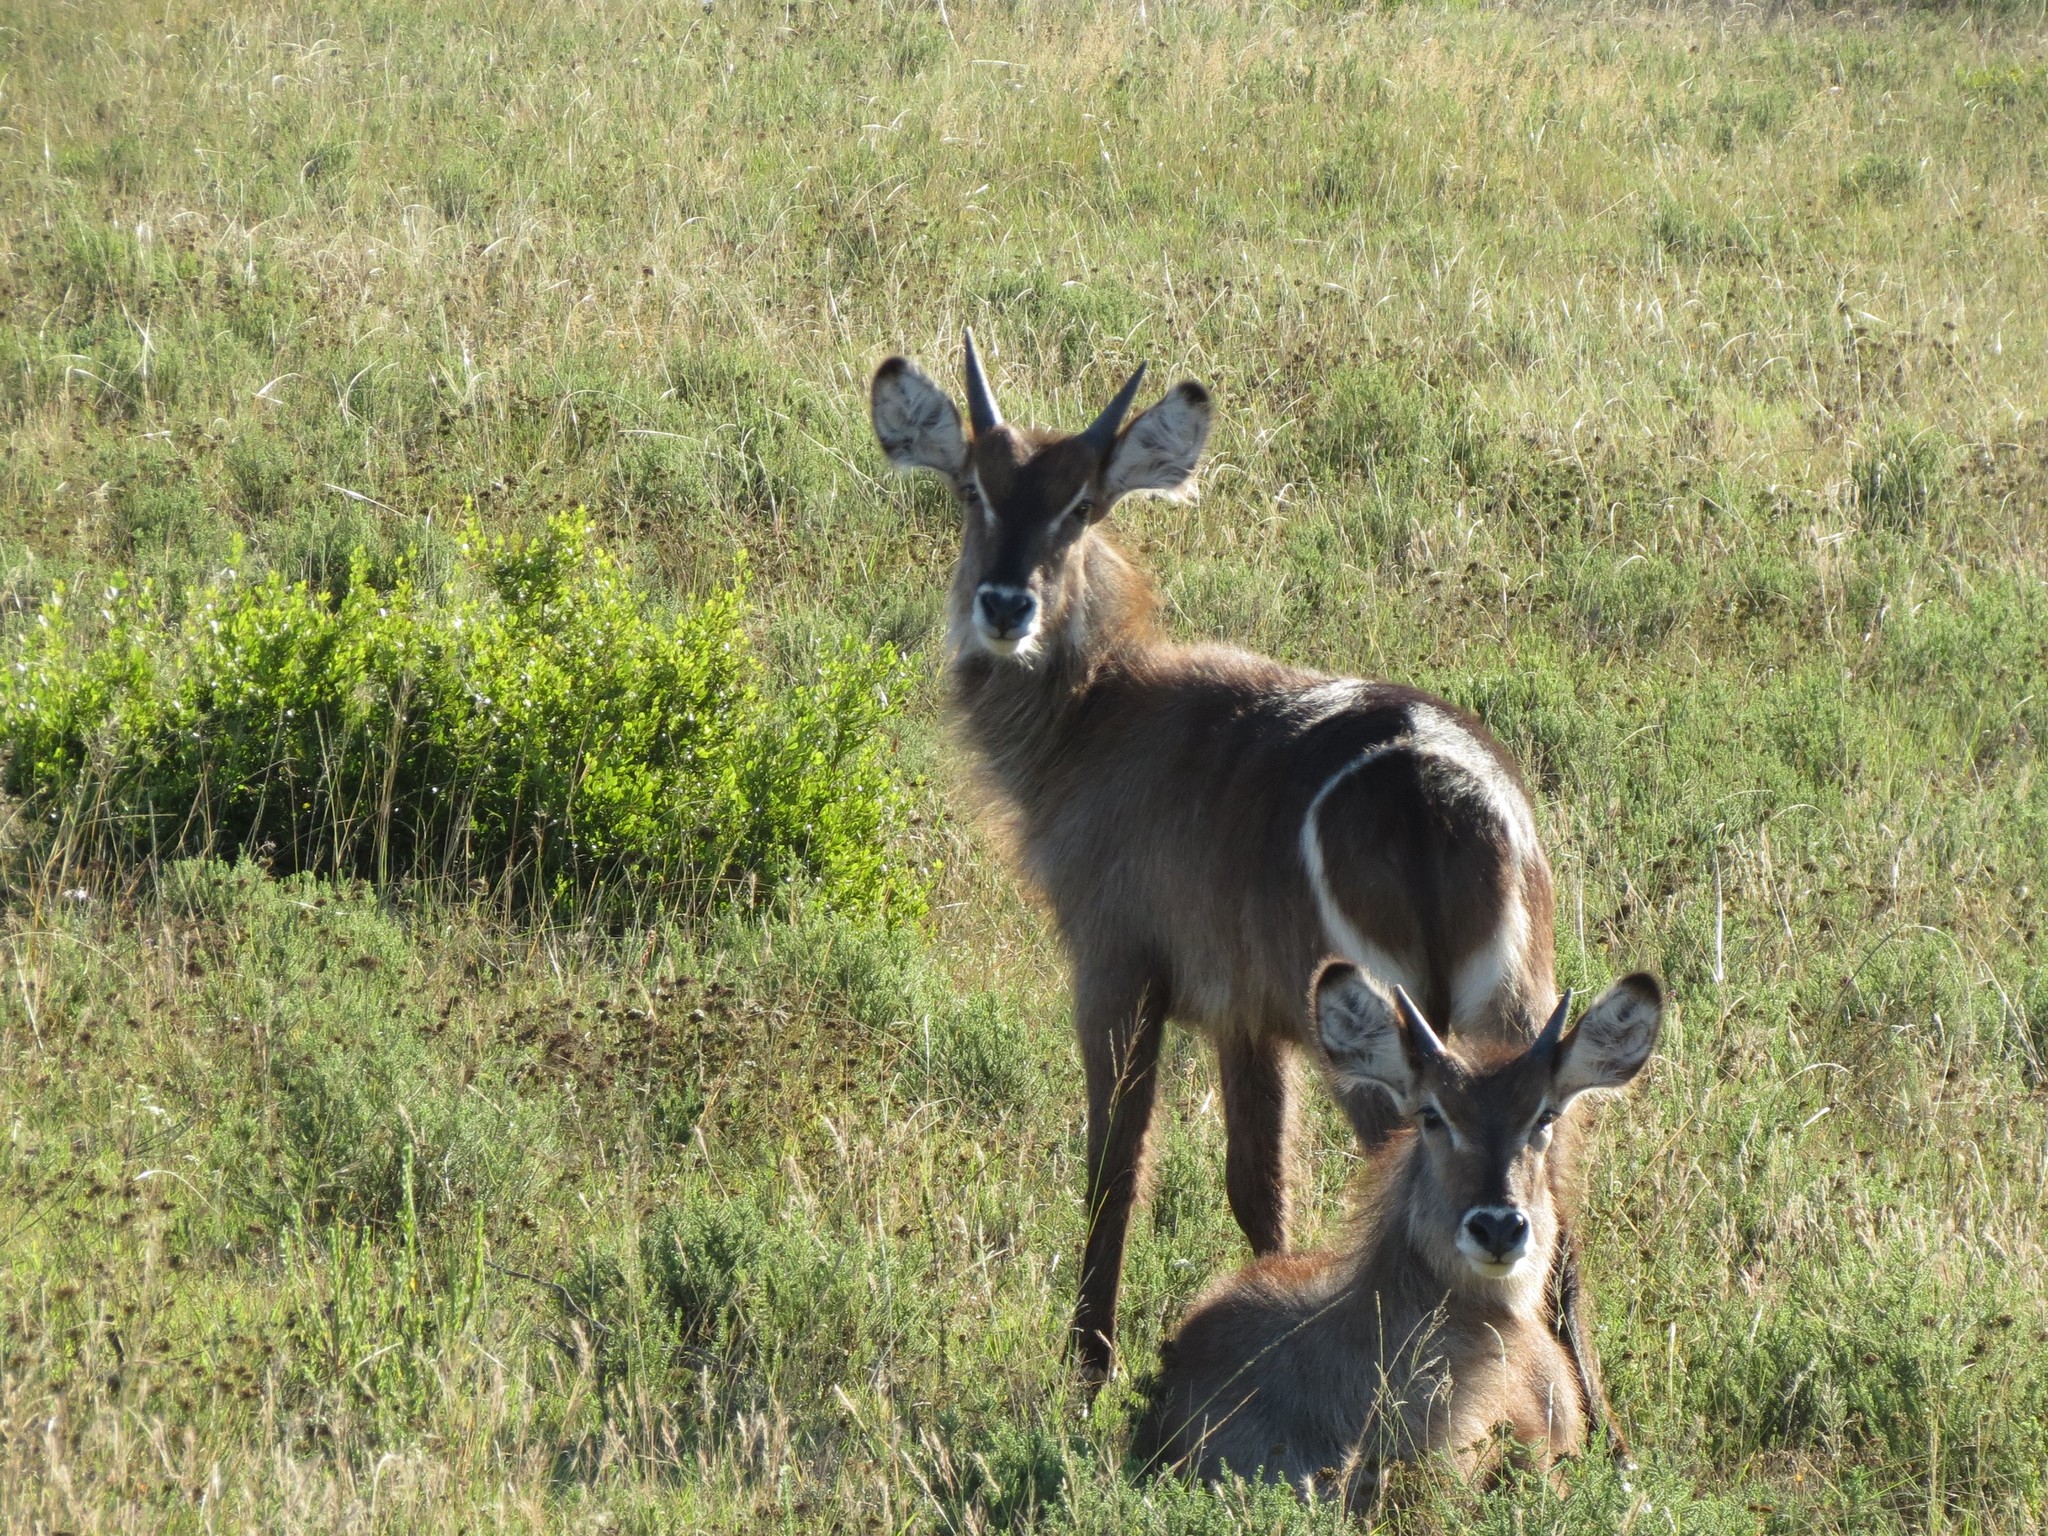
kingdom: Animalia
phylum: Chordata
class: Mammalia
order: Artiodactyla
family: Bovidae
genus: Kobus
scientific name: Kobus ellipsiprymnus
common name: Waterbuck
